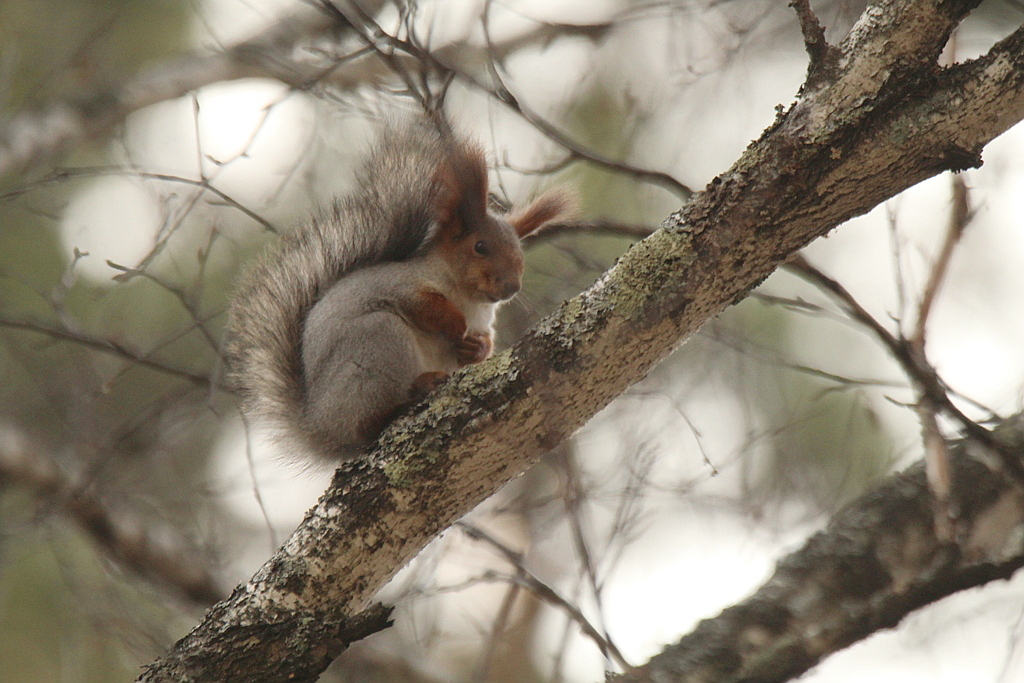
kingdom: Animalia
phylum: Chordata
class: Mammalia
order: Rodentia
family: Sciuridae
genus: Sciurus
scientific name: Sciurus vulgaris
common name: Eurasian red squirrel
